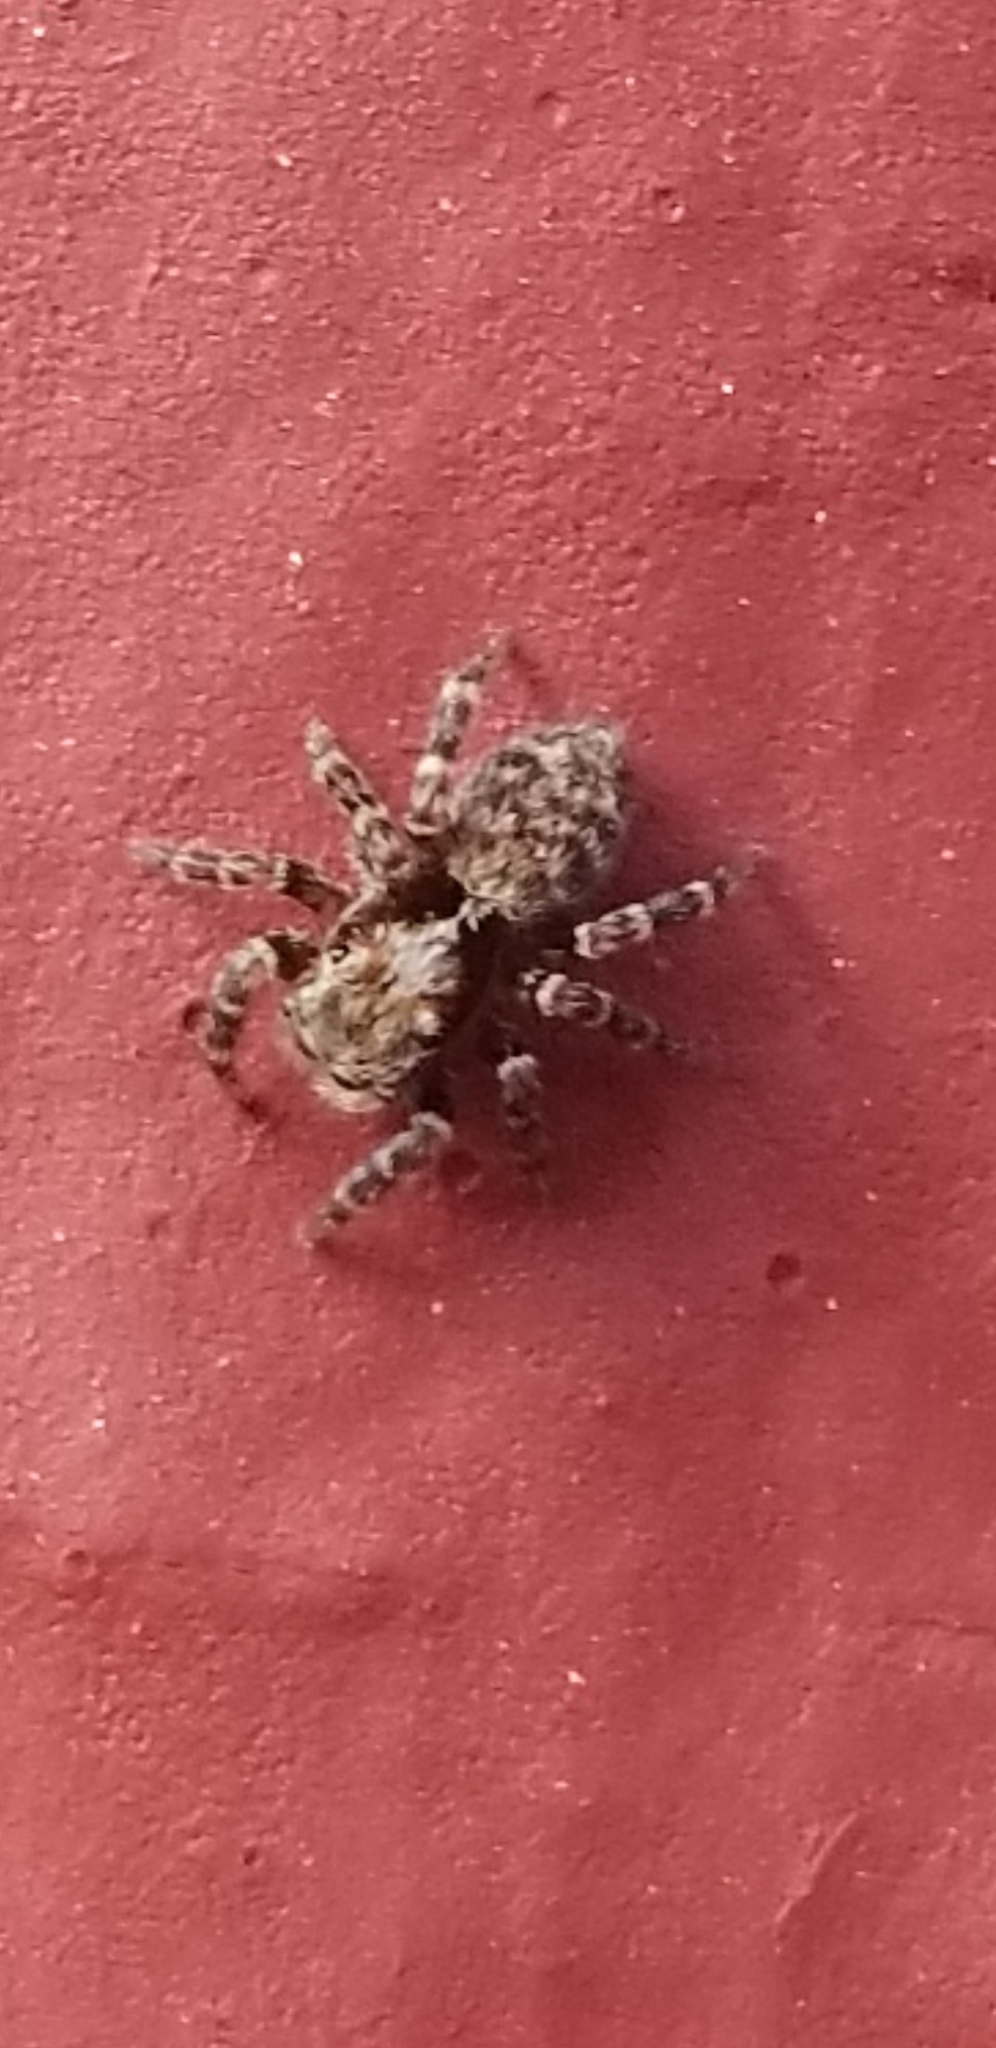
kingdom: Animalia
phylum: Arthropoda
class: Arachnida
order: Araneae
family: Salticidae
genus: Pseudeuophrys
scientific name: Pseudeuophrys erratica
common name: Jumping spider
